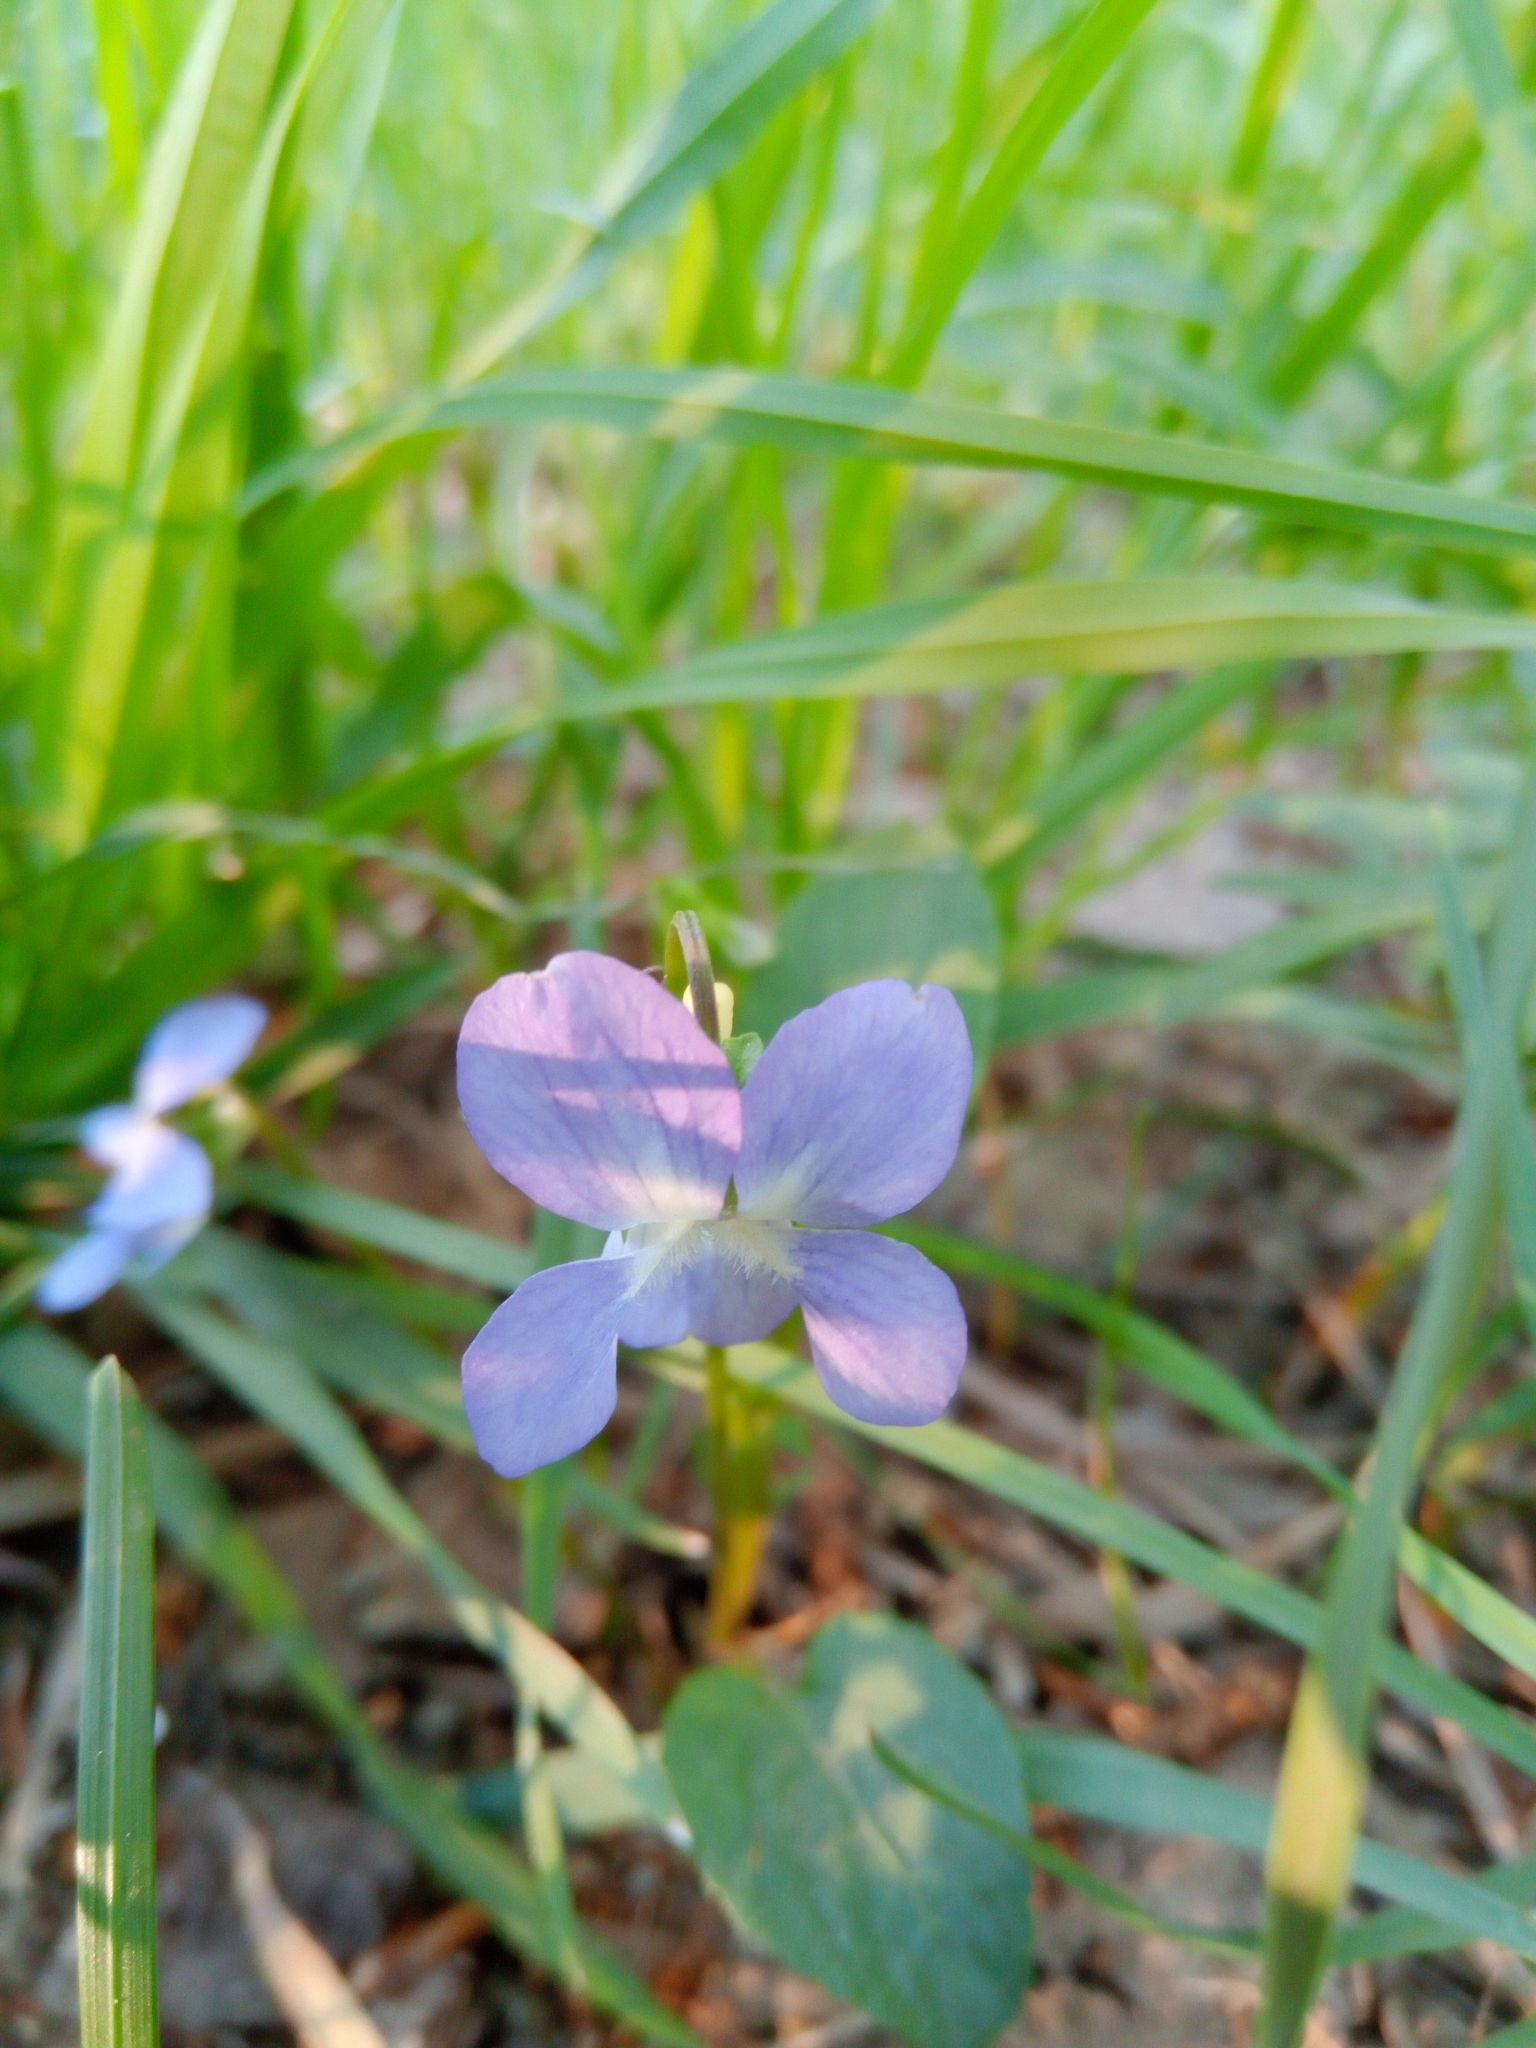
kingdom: Plantae
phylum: Tracheophyta
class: Magnoliopsida
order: Malpighiales
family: Violaceae
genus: Viola
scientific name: Viola canina
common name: Heath dog-violet
